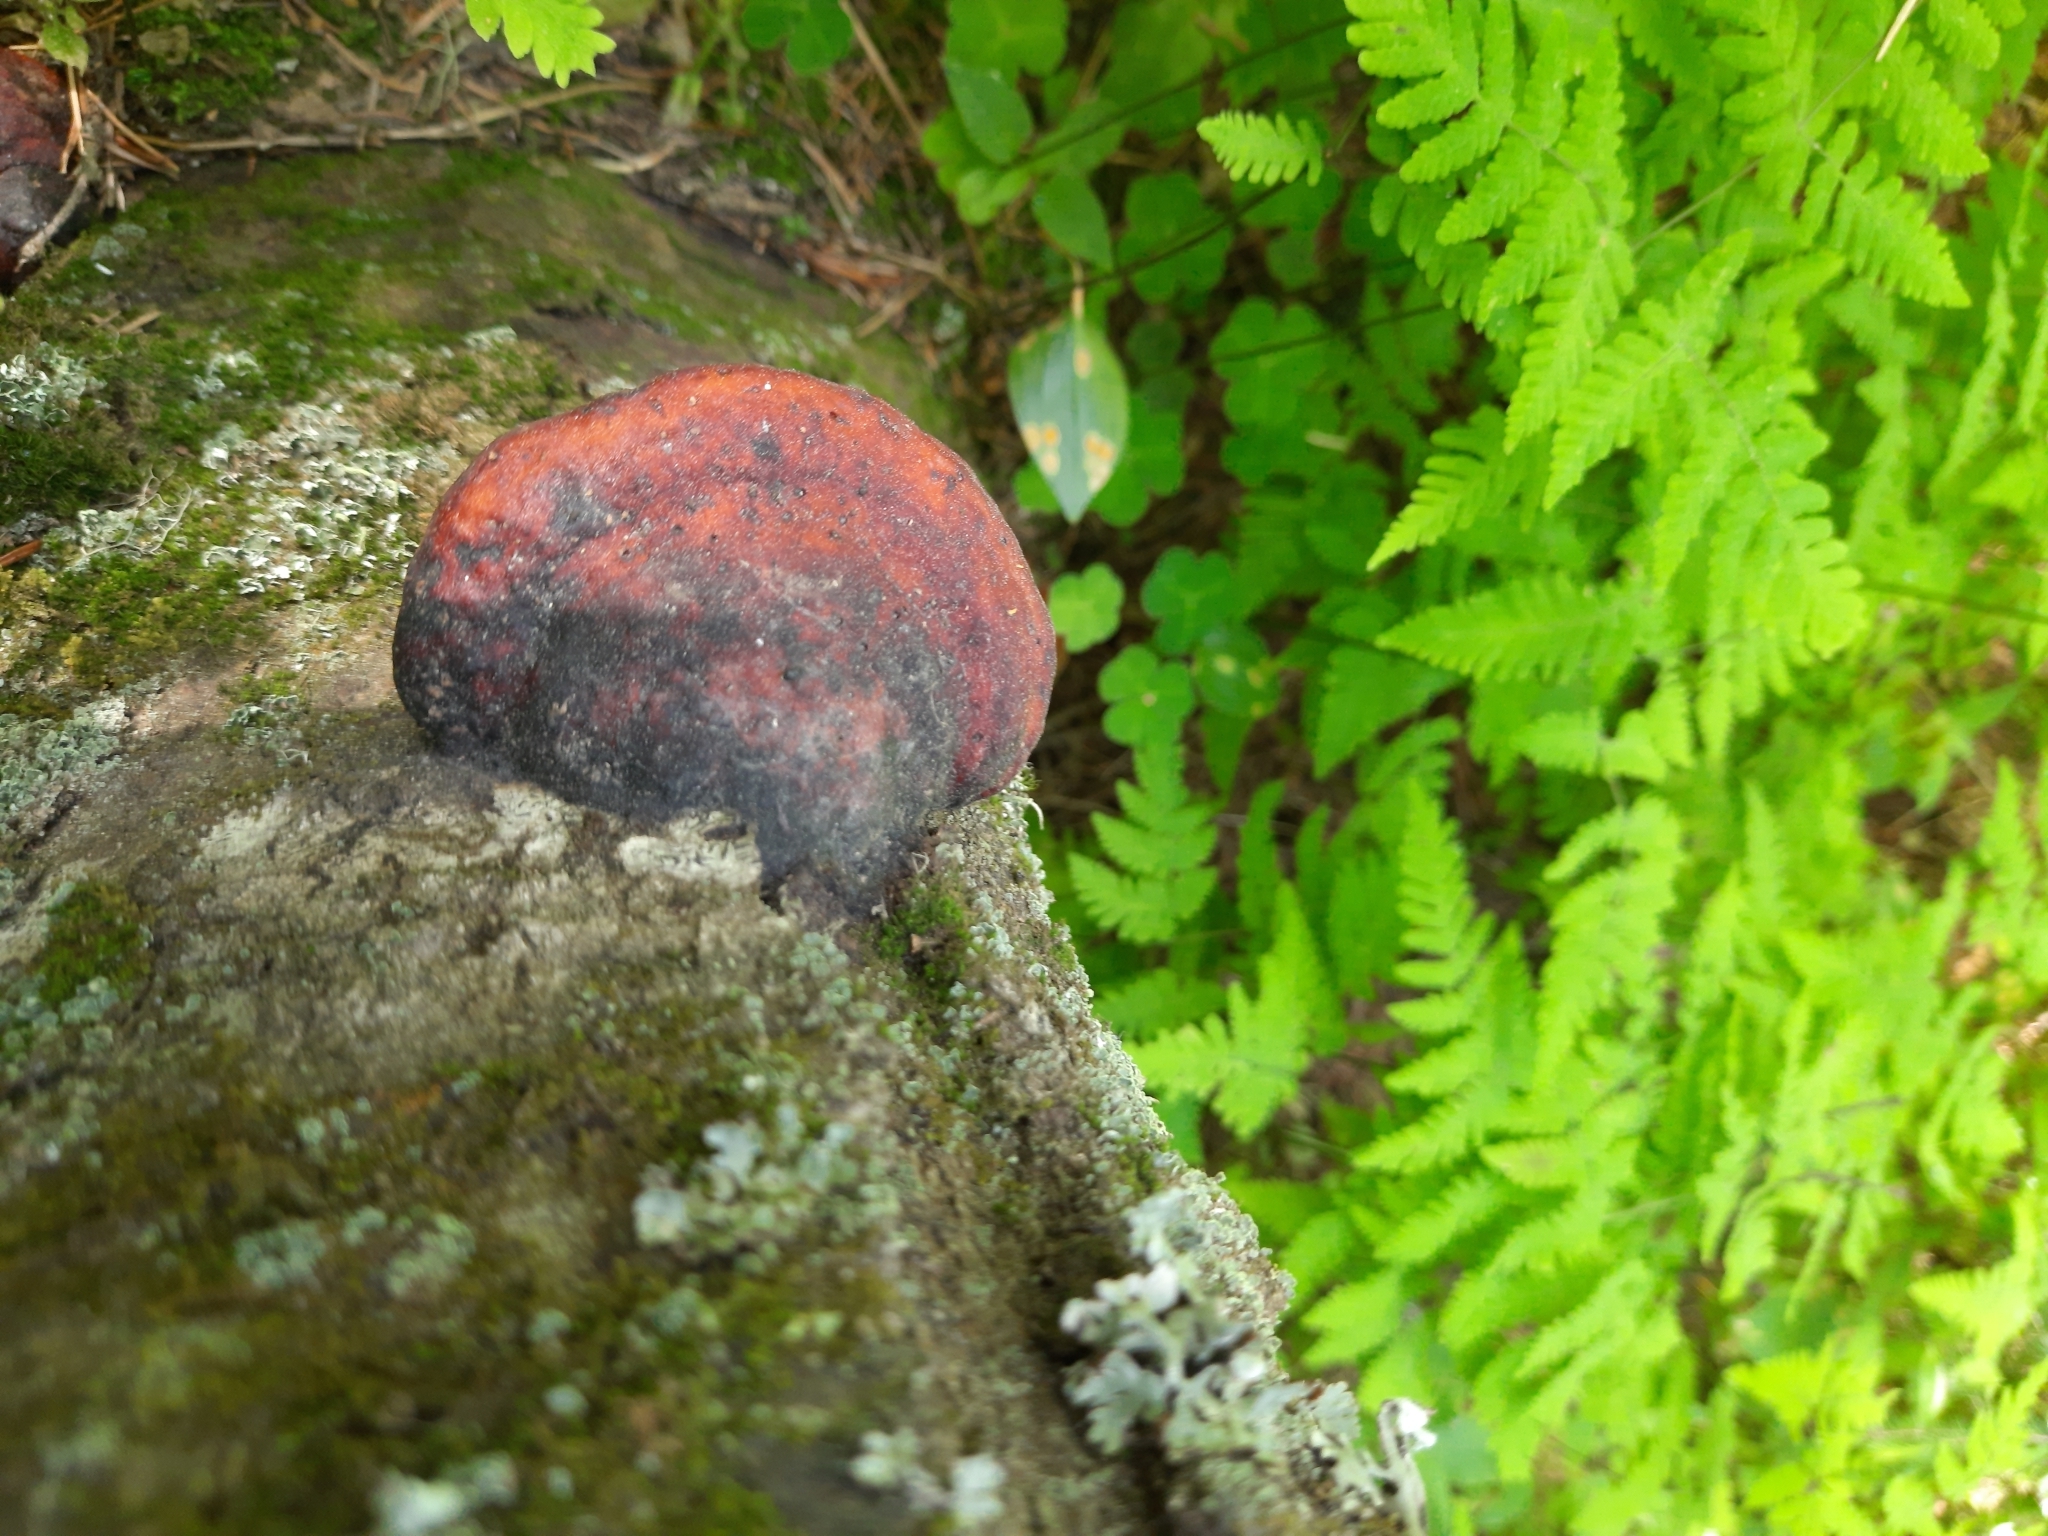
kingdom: Fungi
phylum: Basidiomycota
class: Agaricomycetes
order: Polyporales
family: Fomitopsidaceae
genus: Fomitopsis
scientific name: Fomitopsis pinicola
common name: Red-belted bracket
